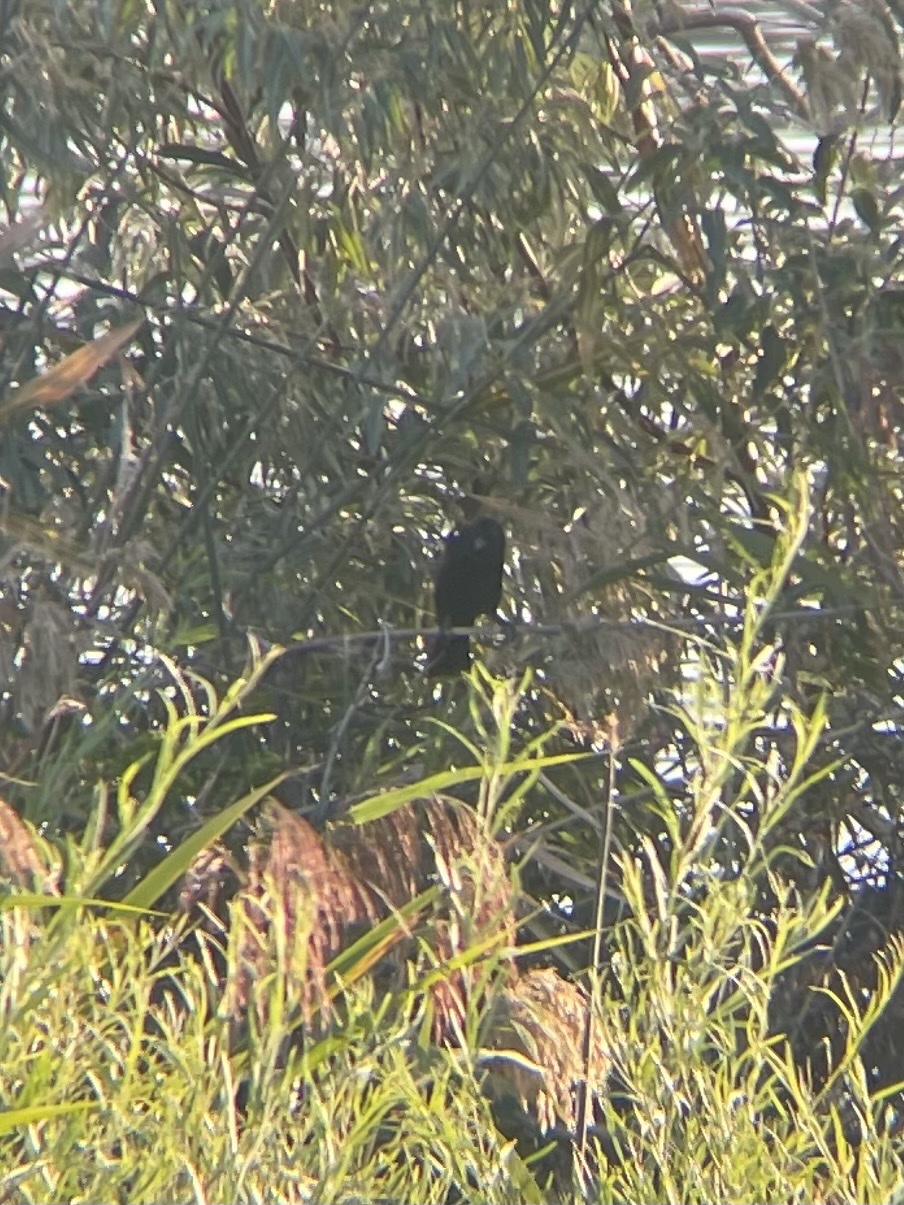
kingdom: Animalia
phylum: Chordata
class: Aves
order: Passeriformes
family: Icteridae
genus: Agelaius
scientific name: Agelaius phoeniceus
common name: Red-winged blackbird
